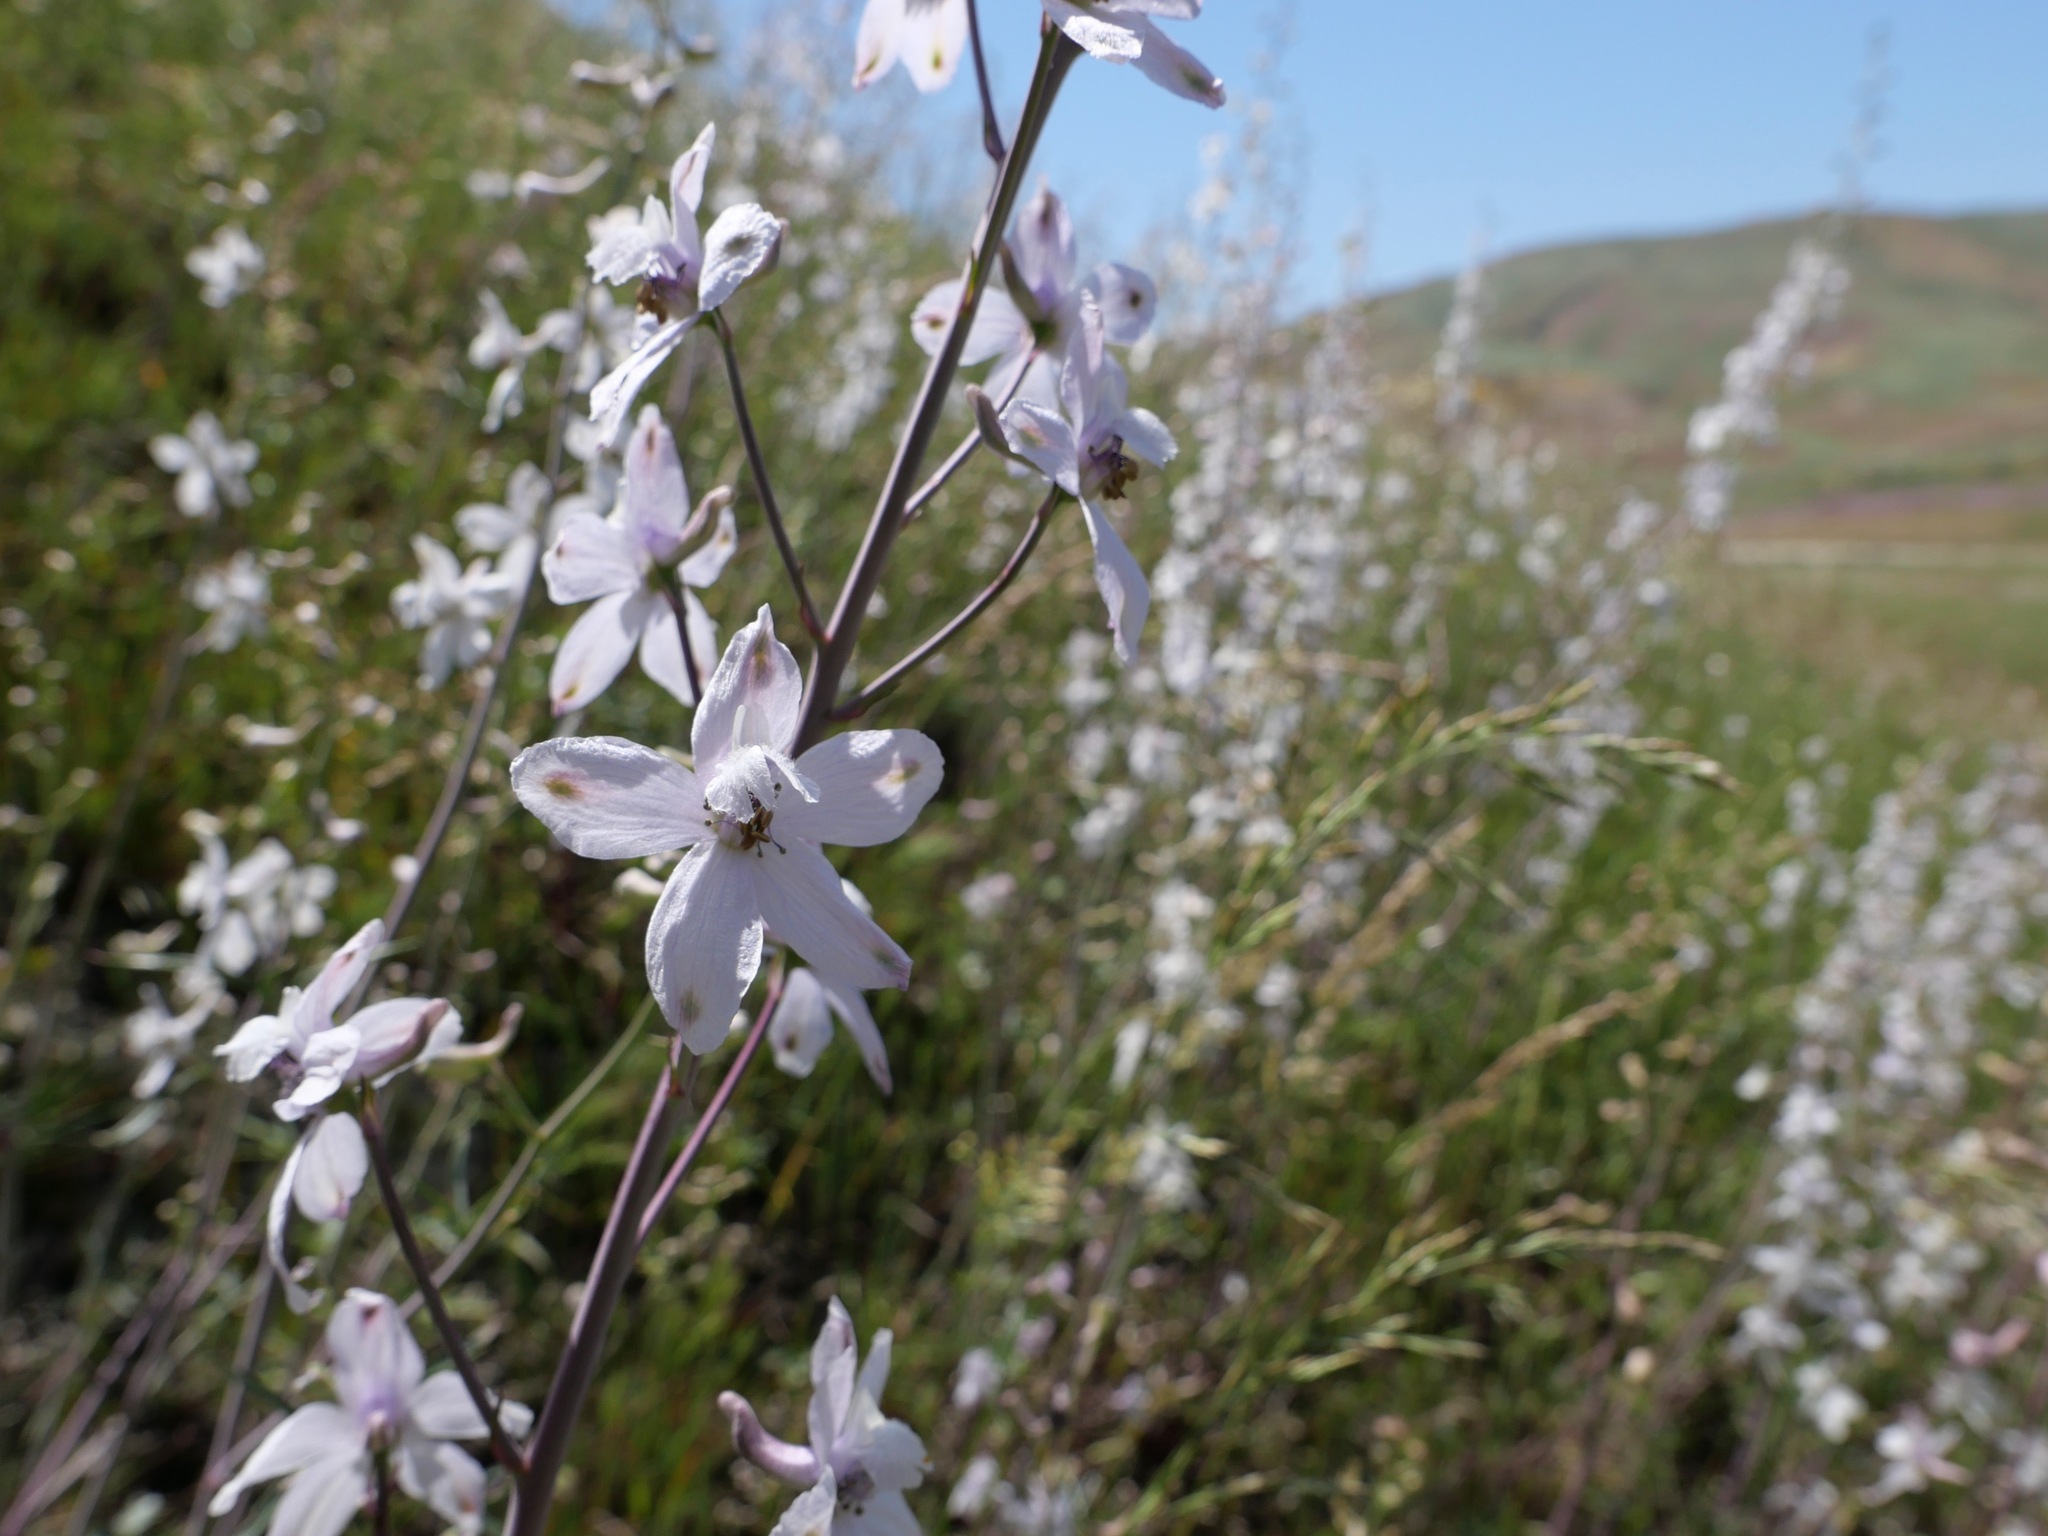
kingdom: Plantae
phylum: Tracheophyta
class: Magnoliopsida
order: Ranunculales
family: Ranunculaceae
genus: Delphinium
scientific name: Delphinium gypsophilum
